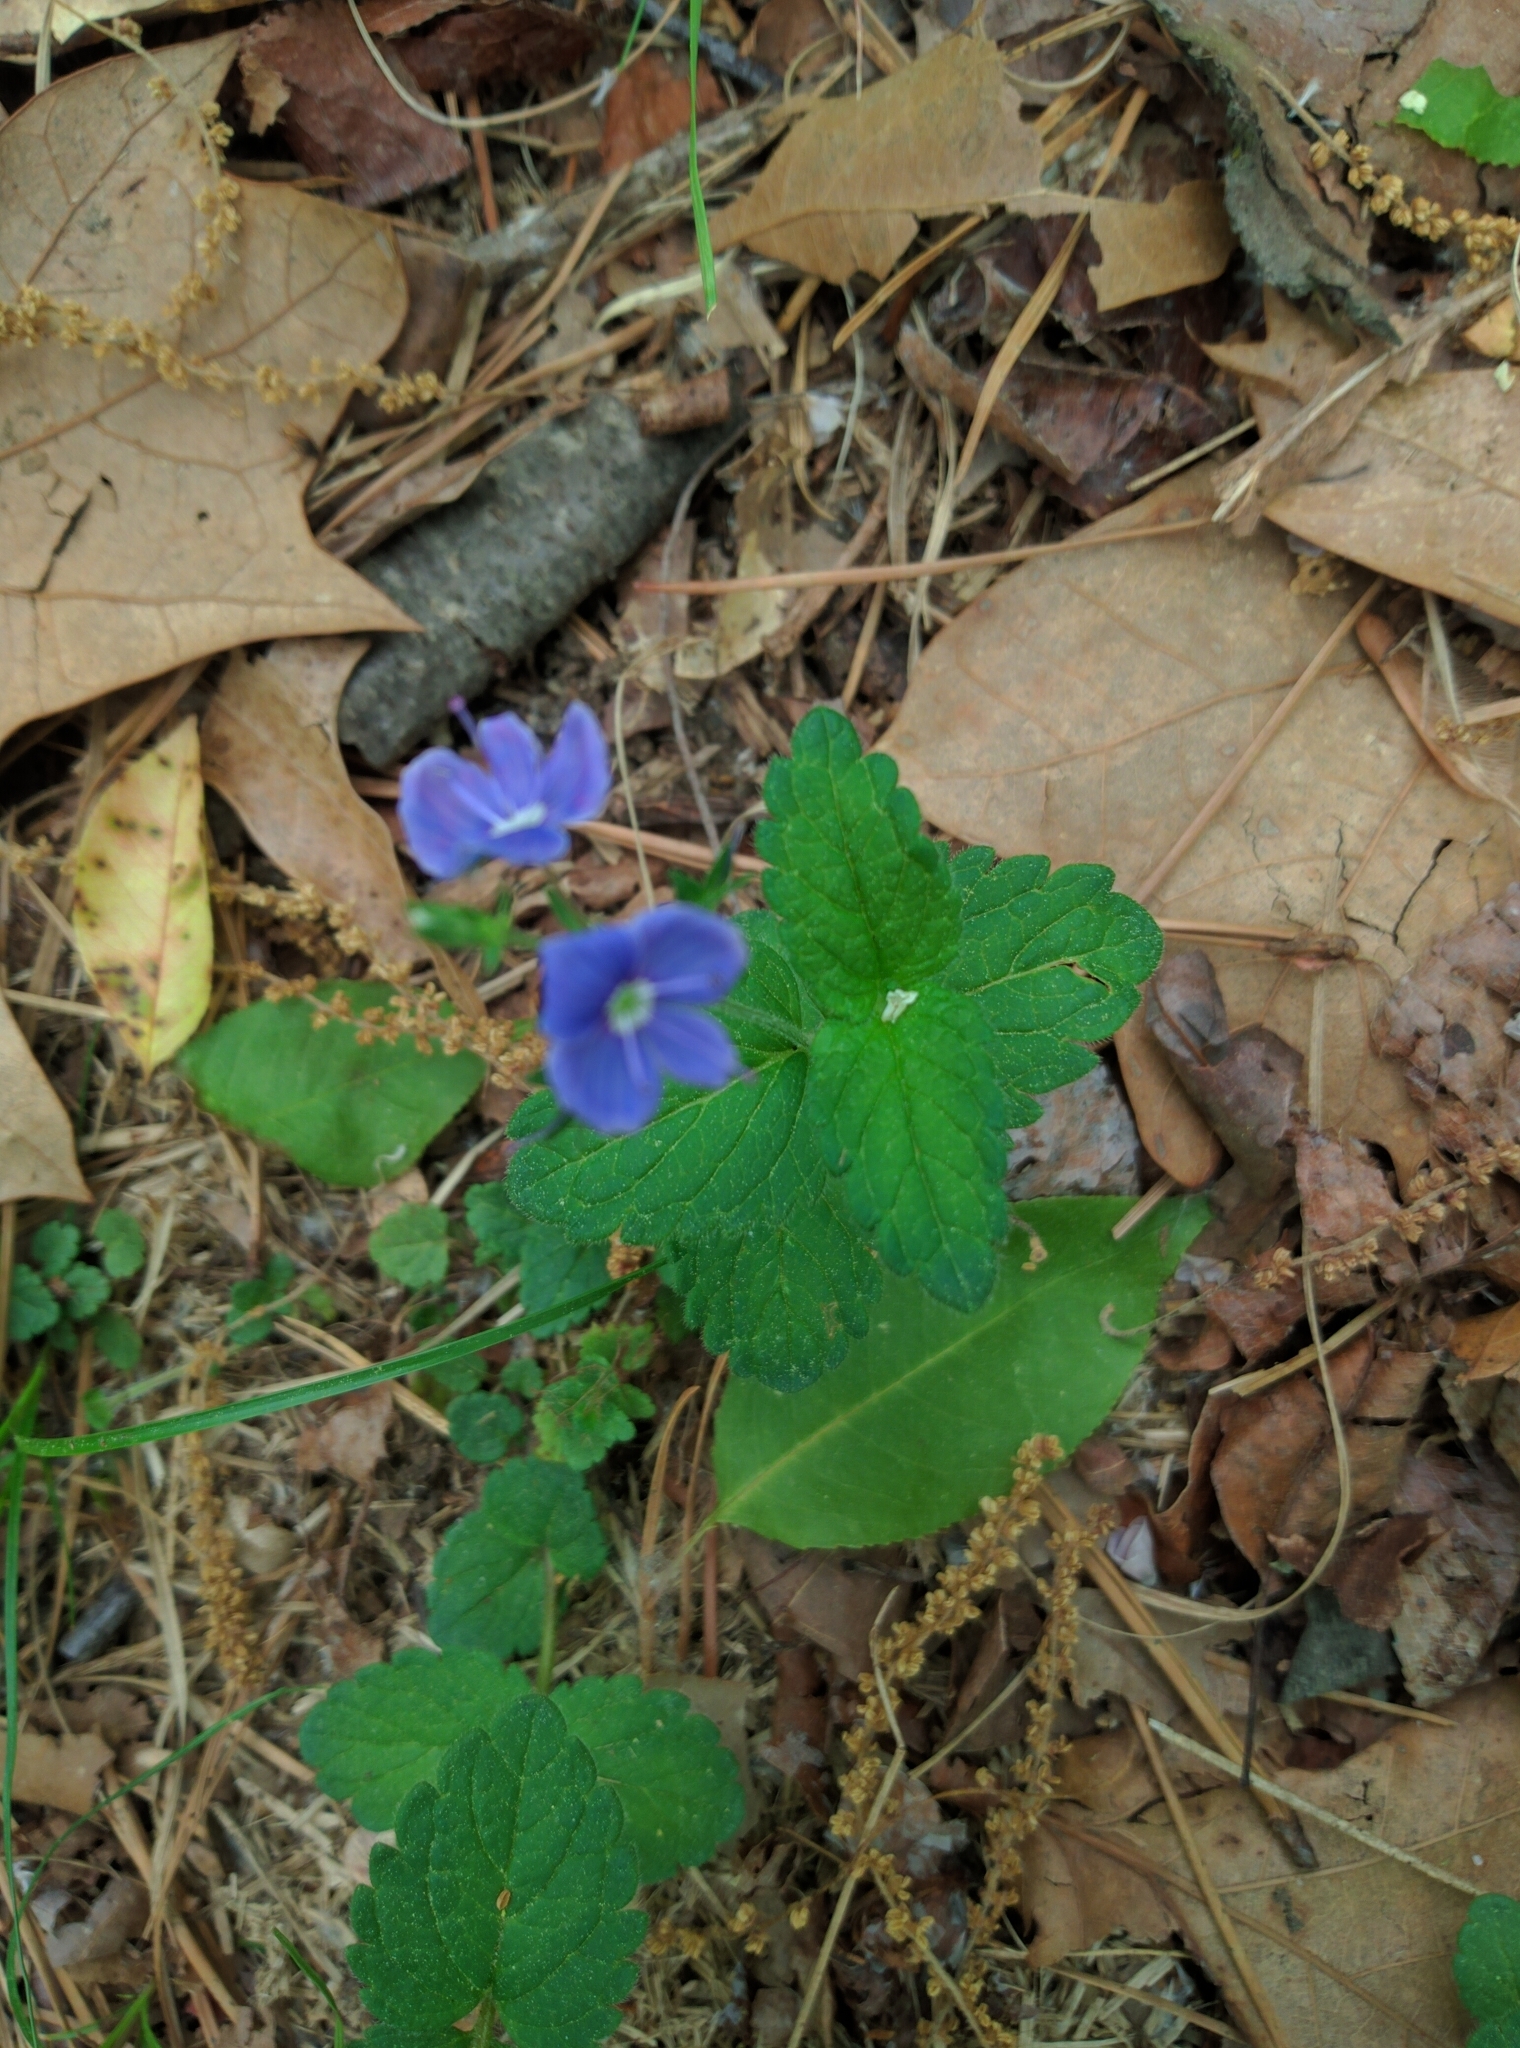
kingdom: Plantae
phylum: Tracheophyta
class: Magnoliopsida
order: Lamiales
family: Plantaginaceae
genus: Veronica
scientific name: Veronica chamaedrys
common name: Germander speedwell
